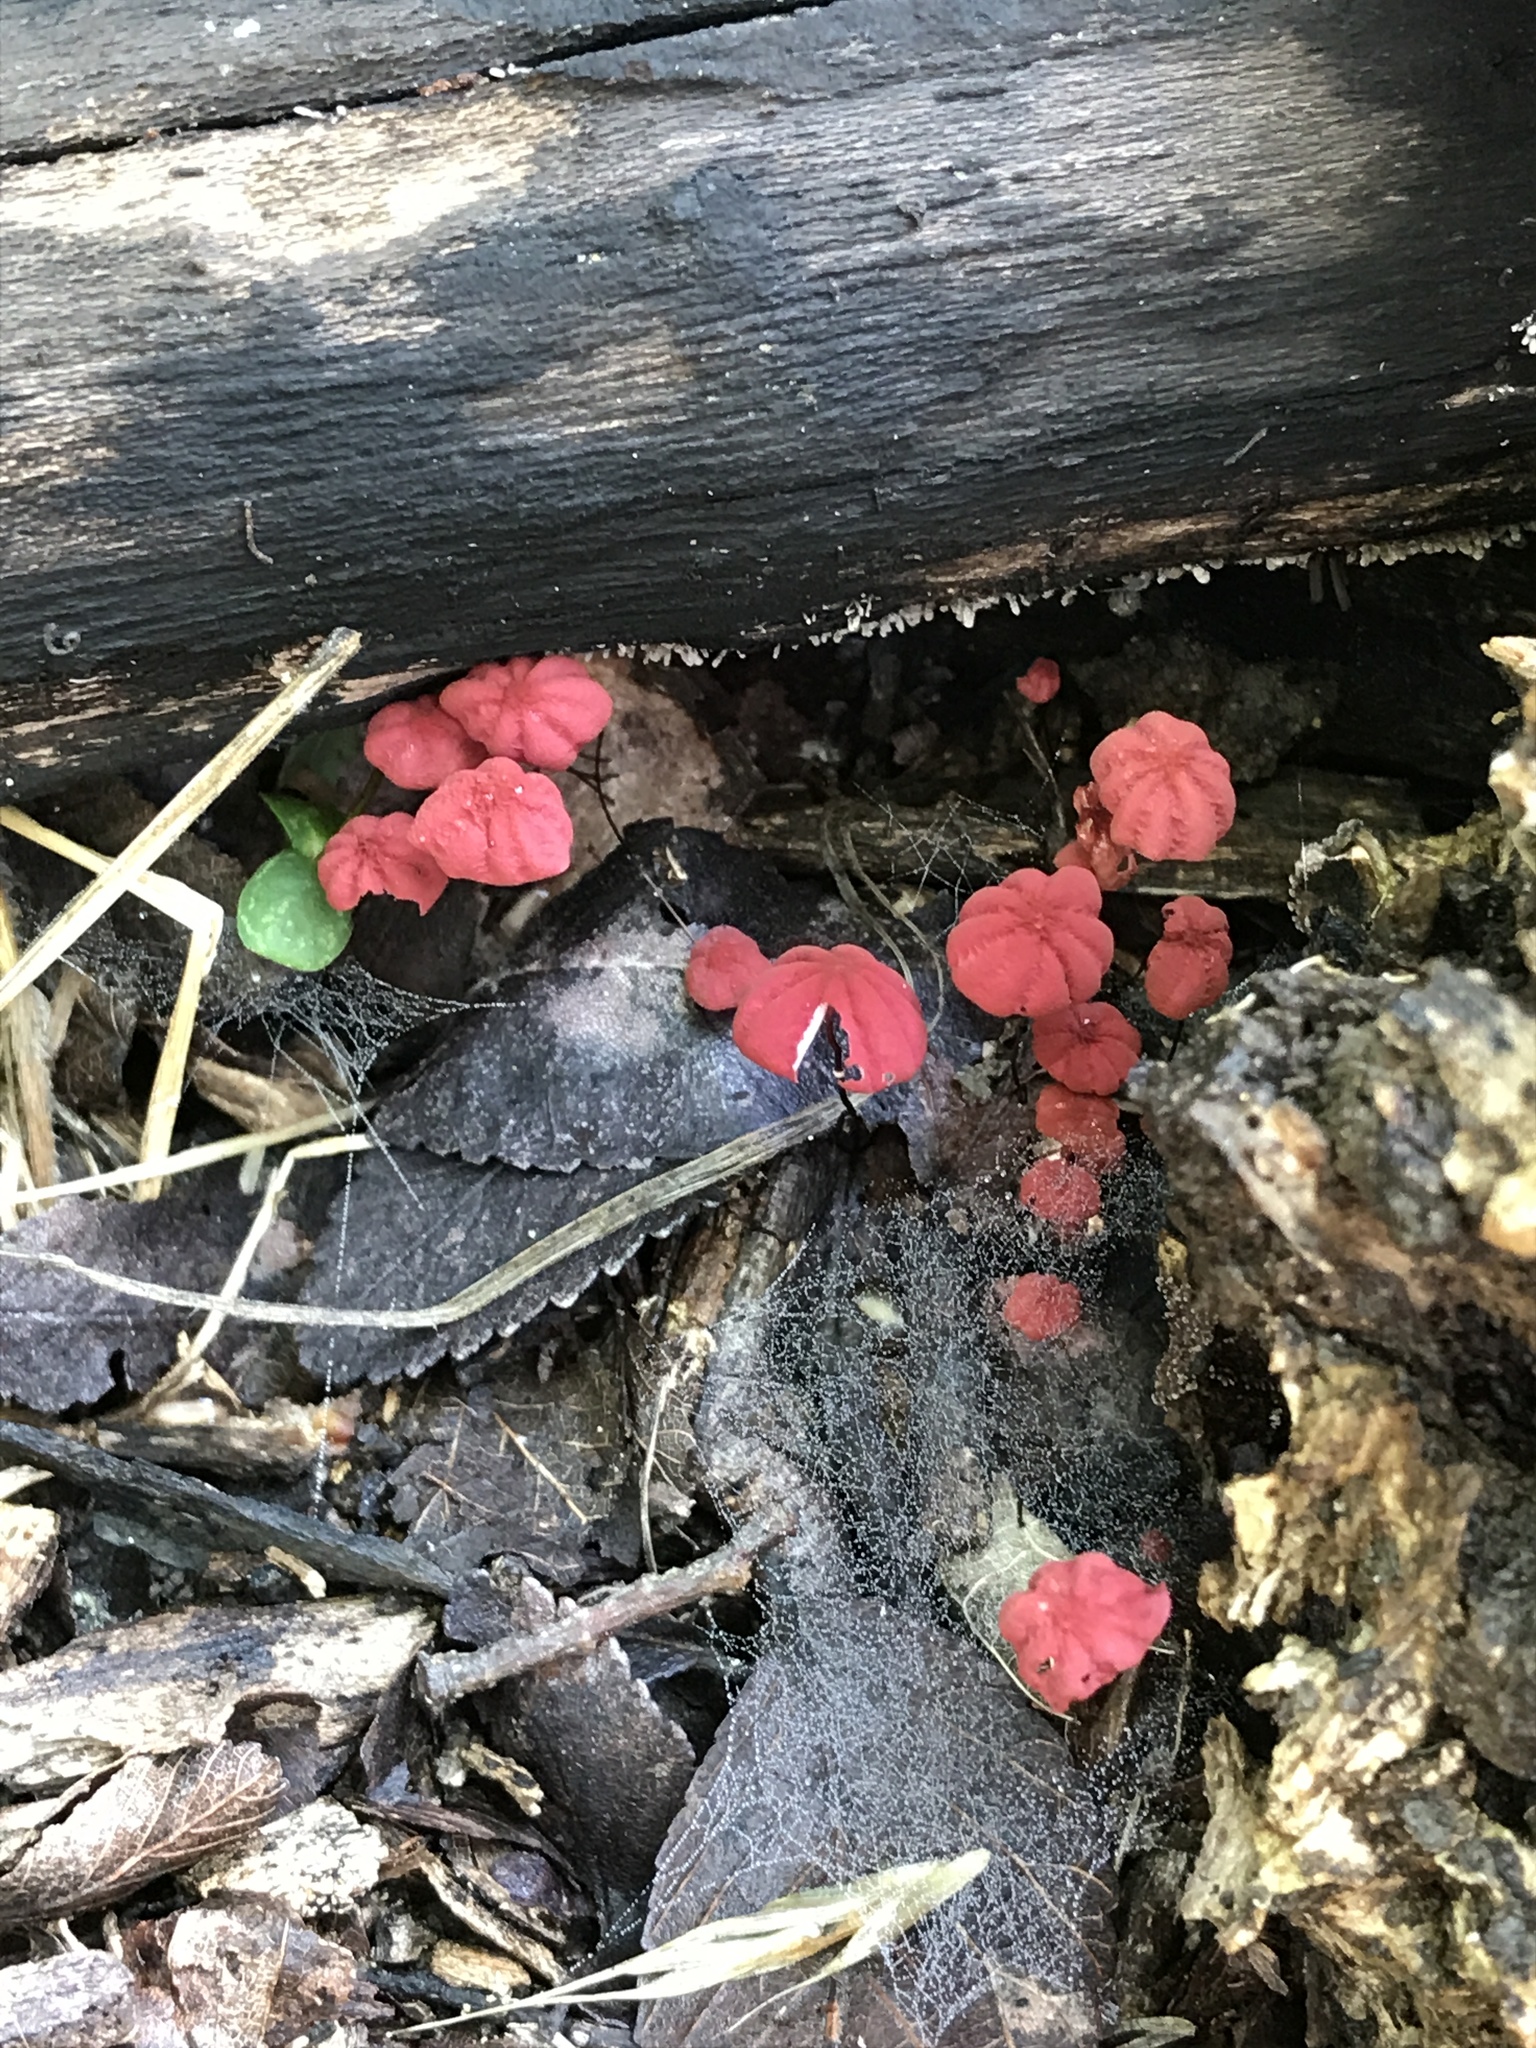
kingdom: Fungi
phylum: Basidiomycota
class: Agaricomycetes
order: Agaricales
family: Marasmiaceae
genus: Marasmius
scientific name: Marasmius haematocephalus
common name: Purple pinwheel
